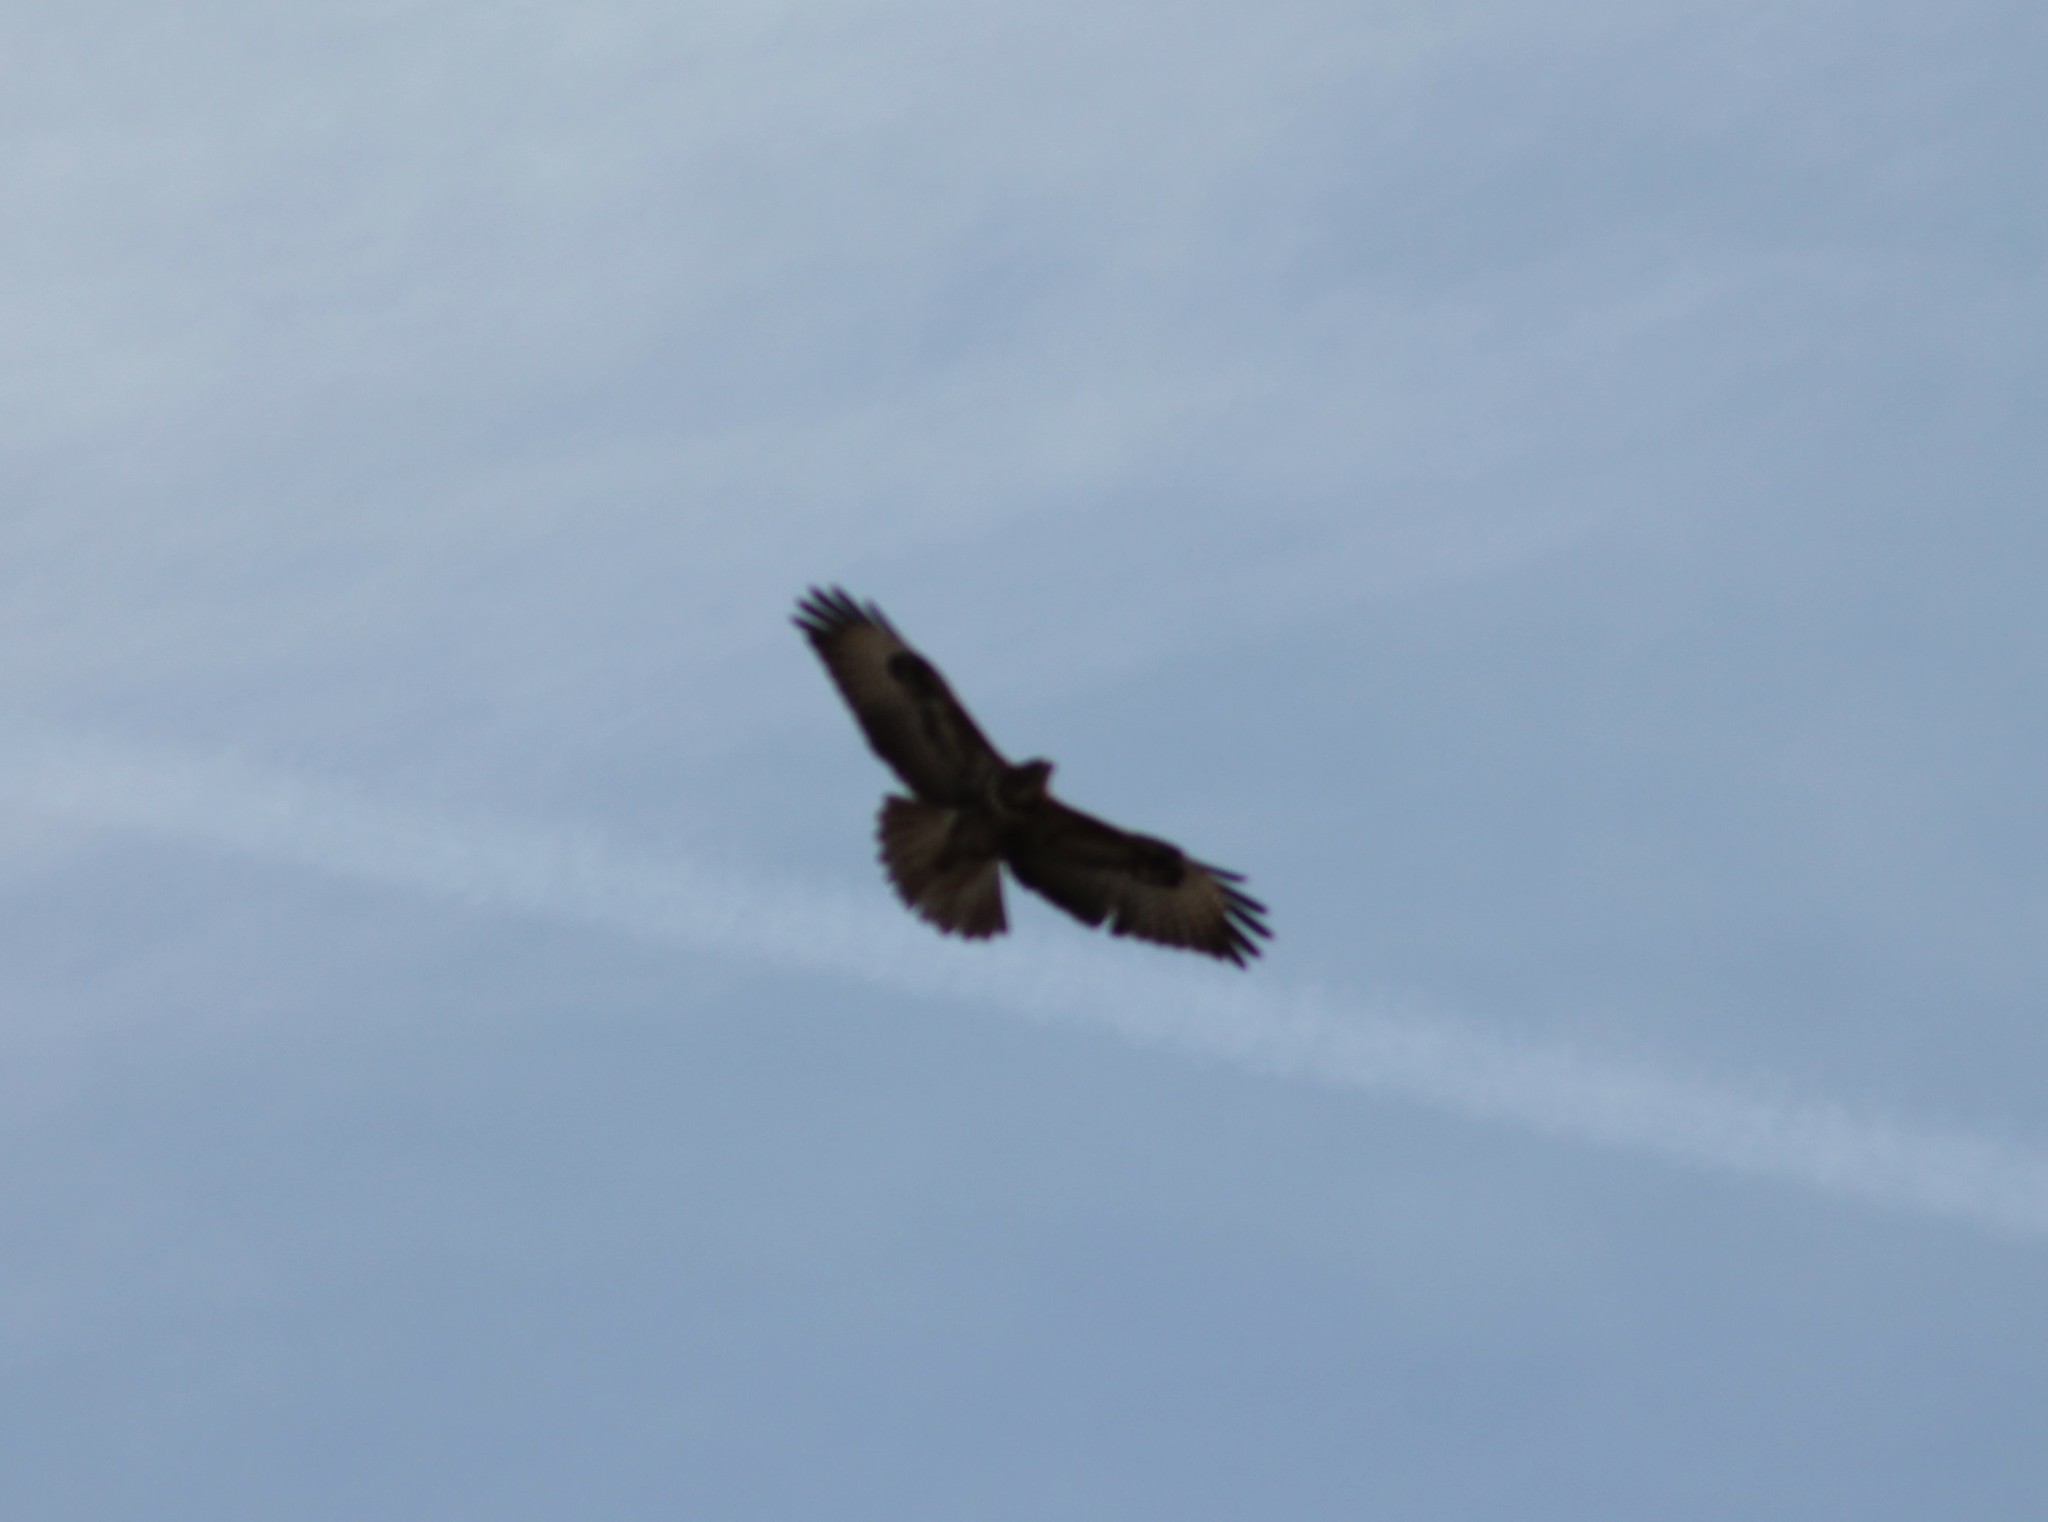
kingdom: Animalia
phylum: Chordata
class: Aves
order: Accipitriformes
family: Accipitridae
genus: Buteo
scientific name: Buteo buteo
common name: Common buzzard
